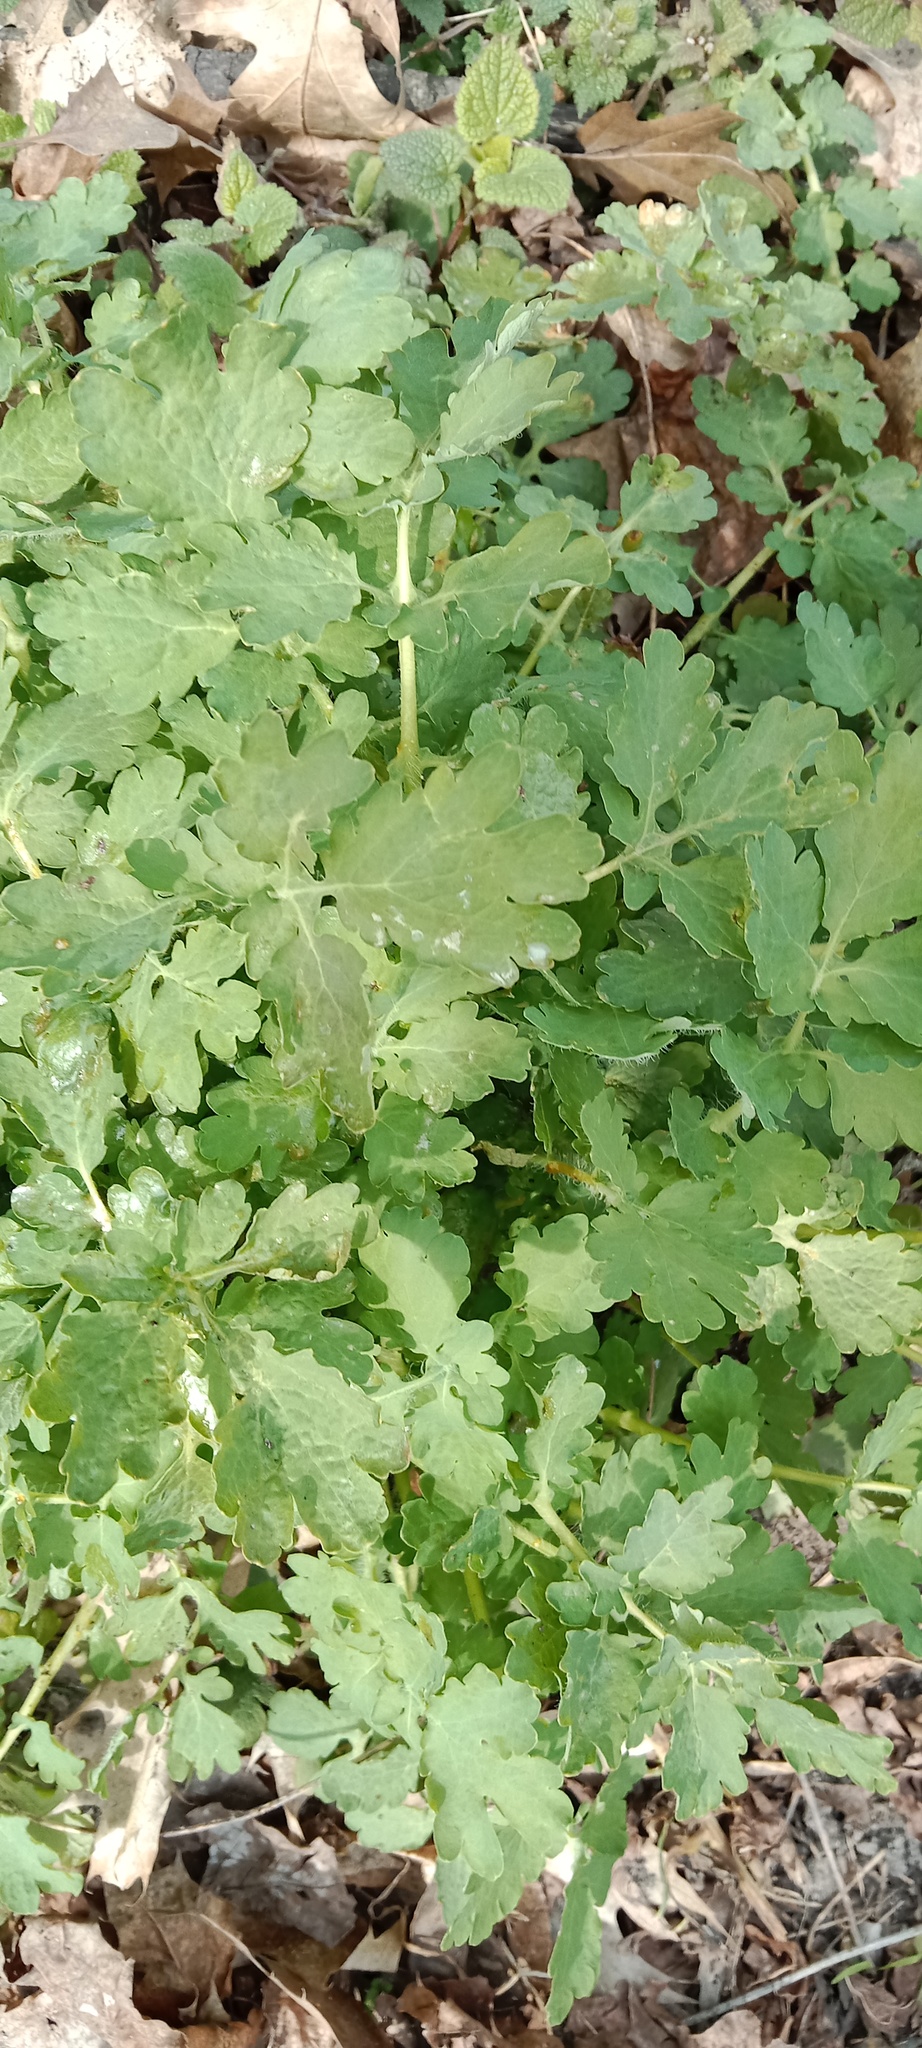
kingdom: Plantae
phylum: Tracheophyta
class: Magnoliopsida
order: Ranunculales
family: Papaveraceae
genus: Chelidonium
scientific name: Chelidonium majus
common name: Greater celandine
